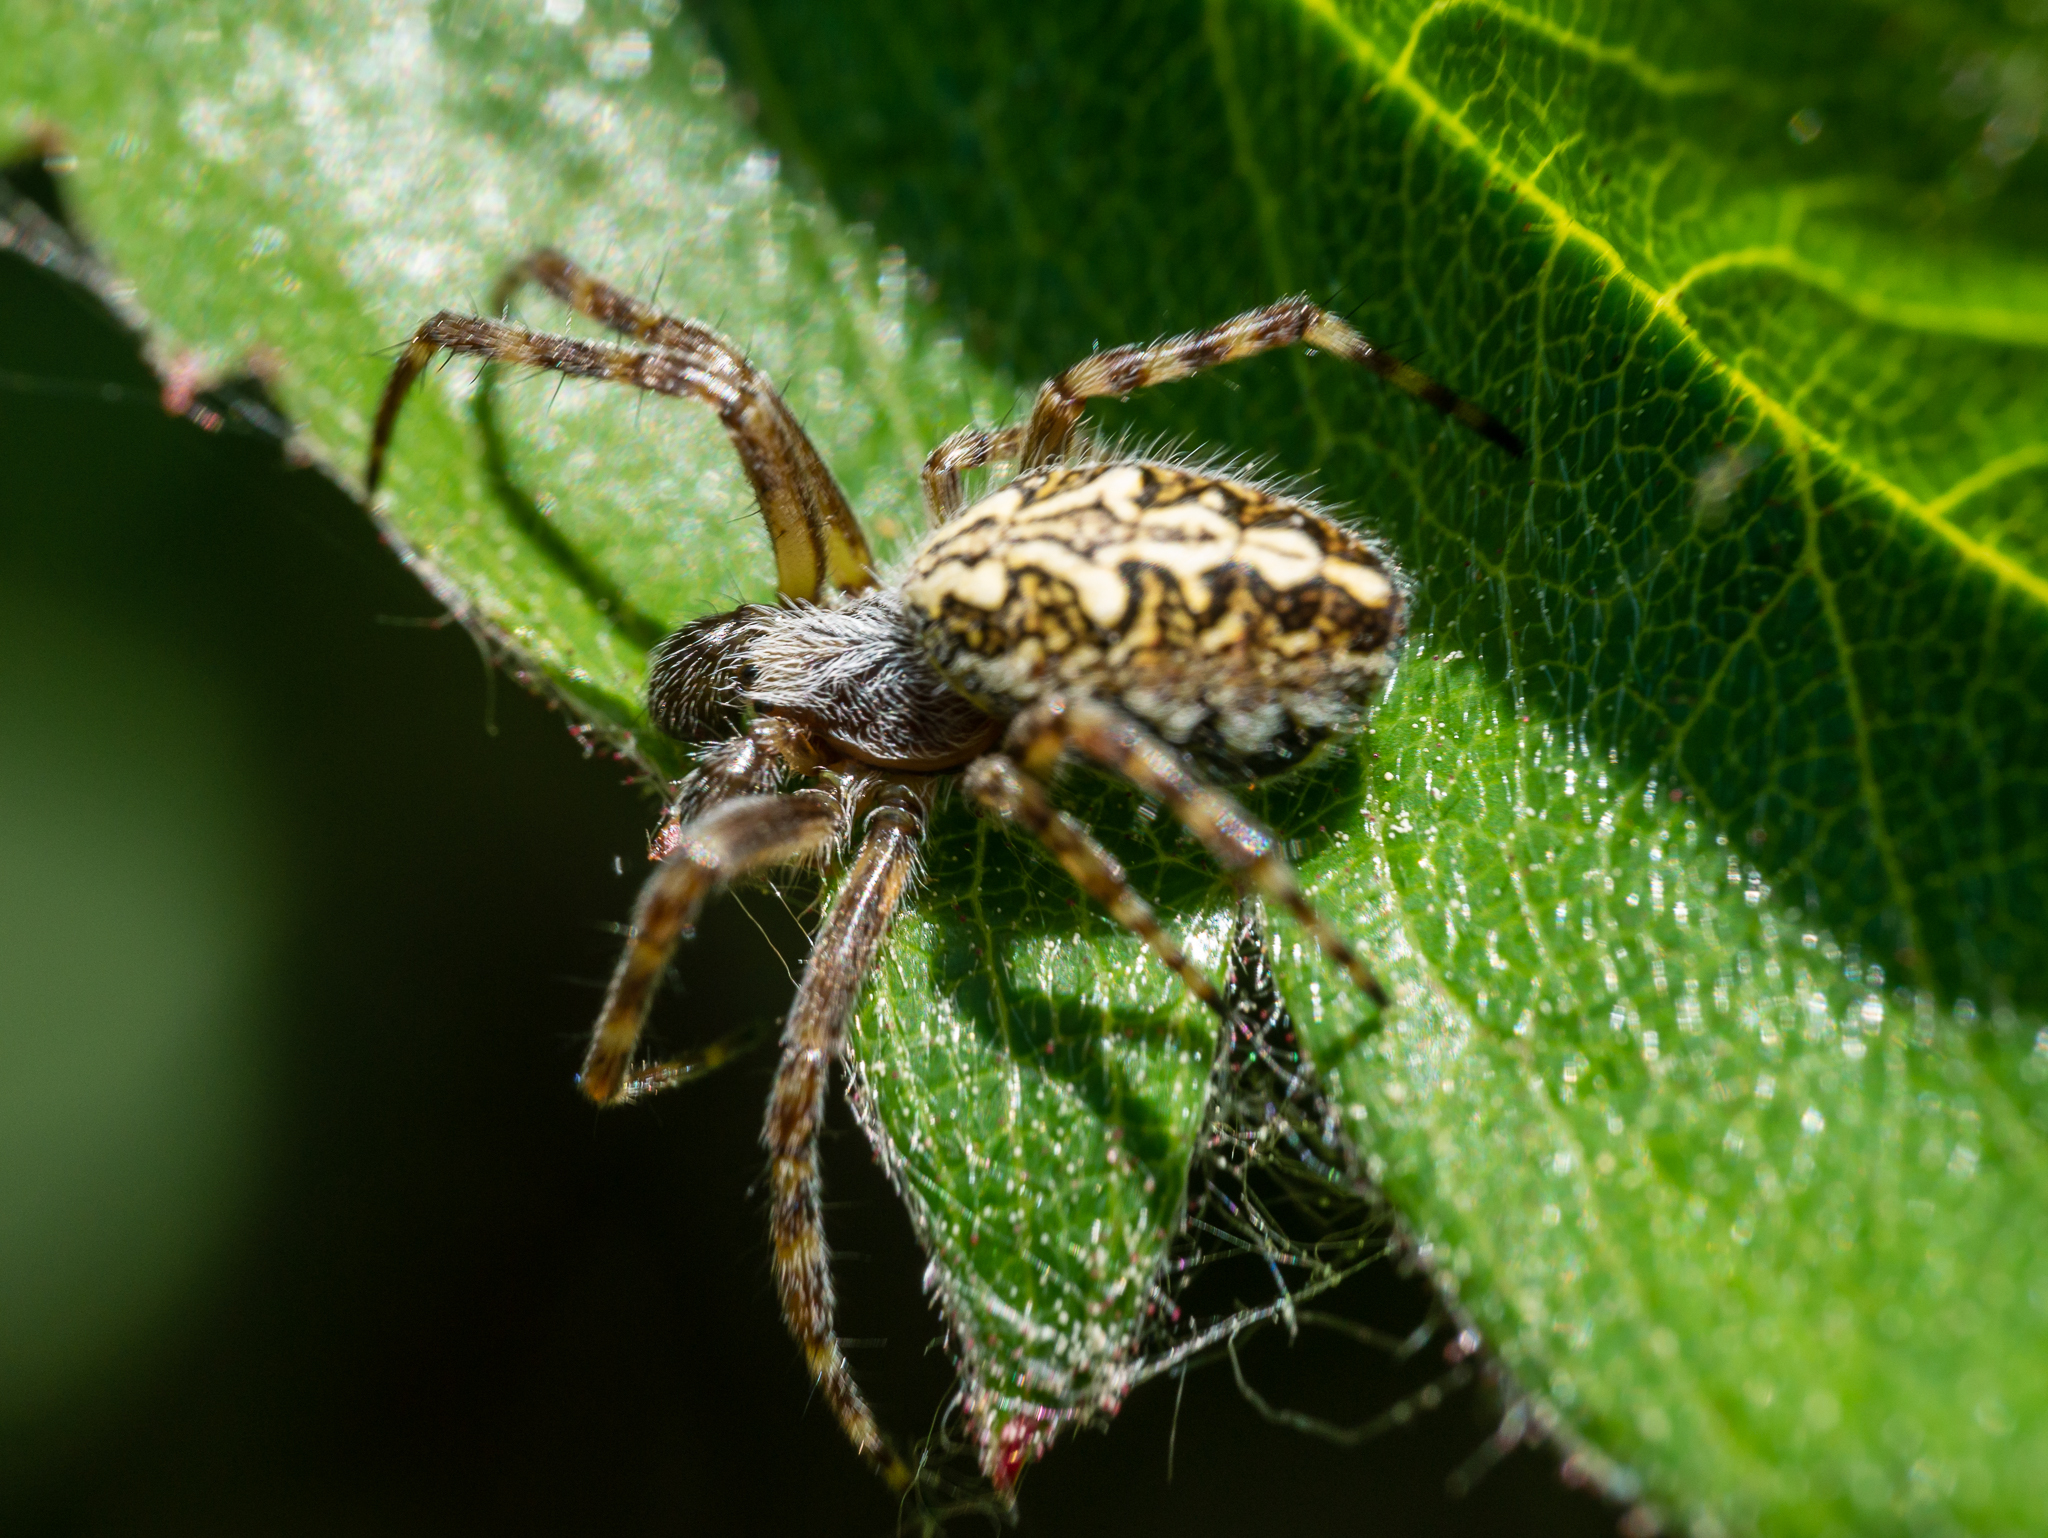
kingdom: Animalia
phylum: Arthropoda
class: Arachnida
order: Araneae
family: Araneidae
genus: Aculepeira
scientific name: Aculepeira ceropegia
